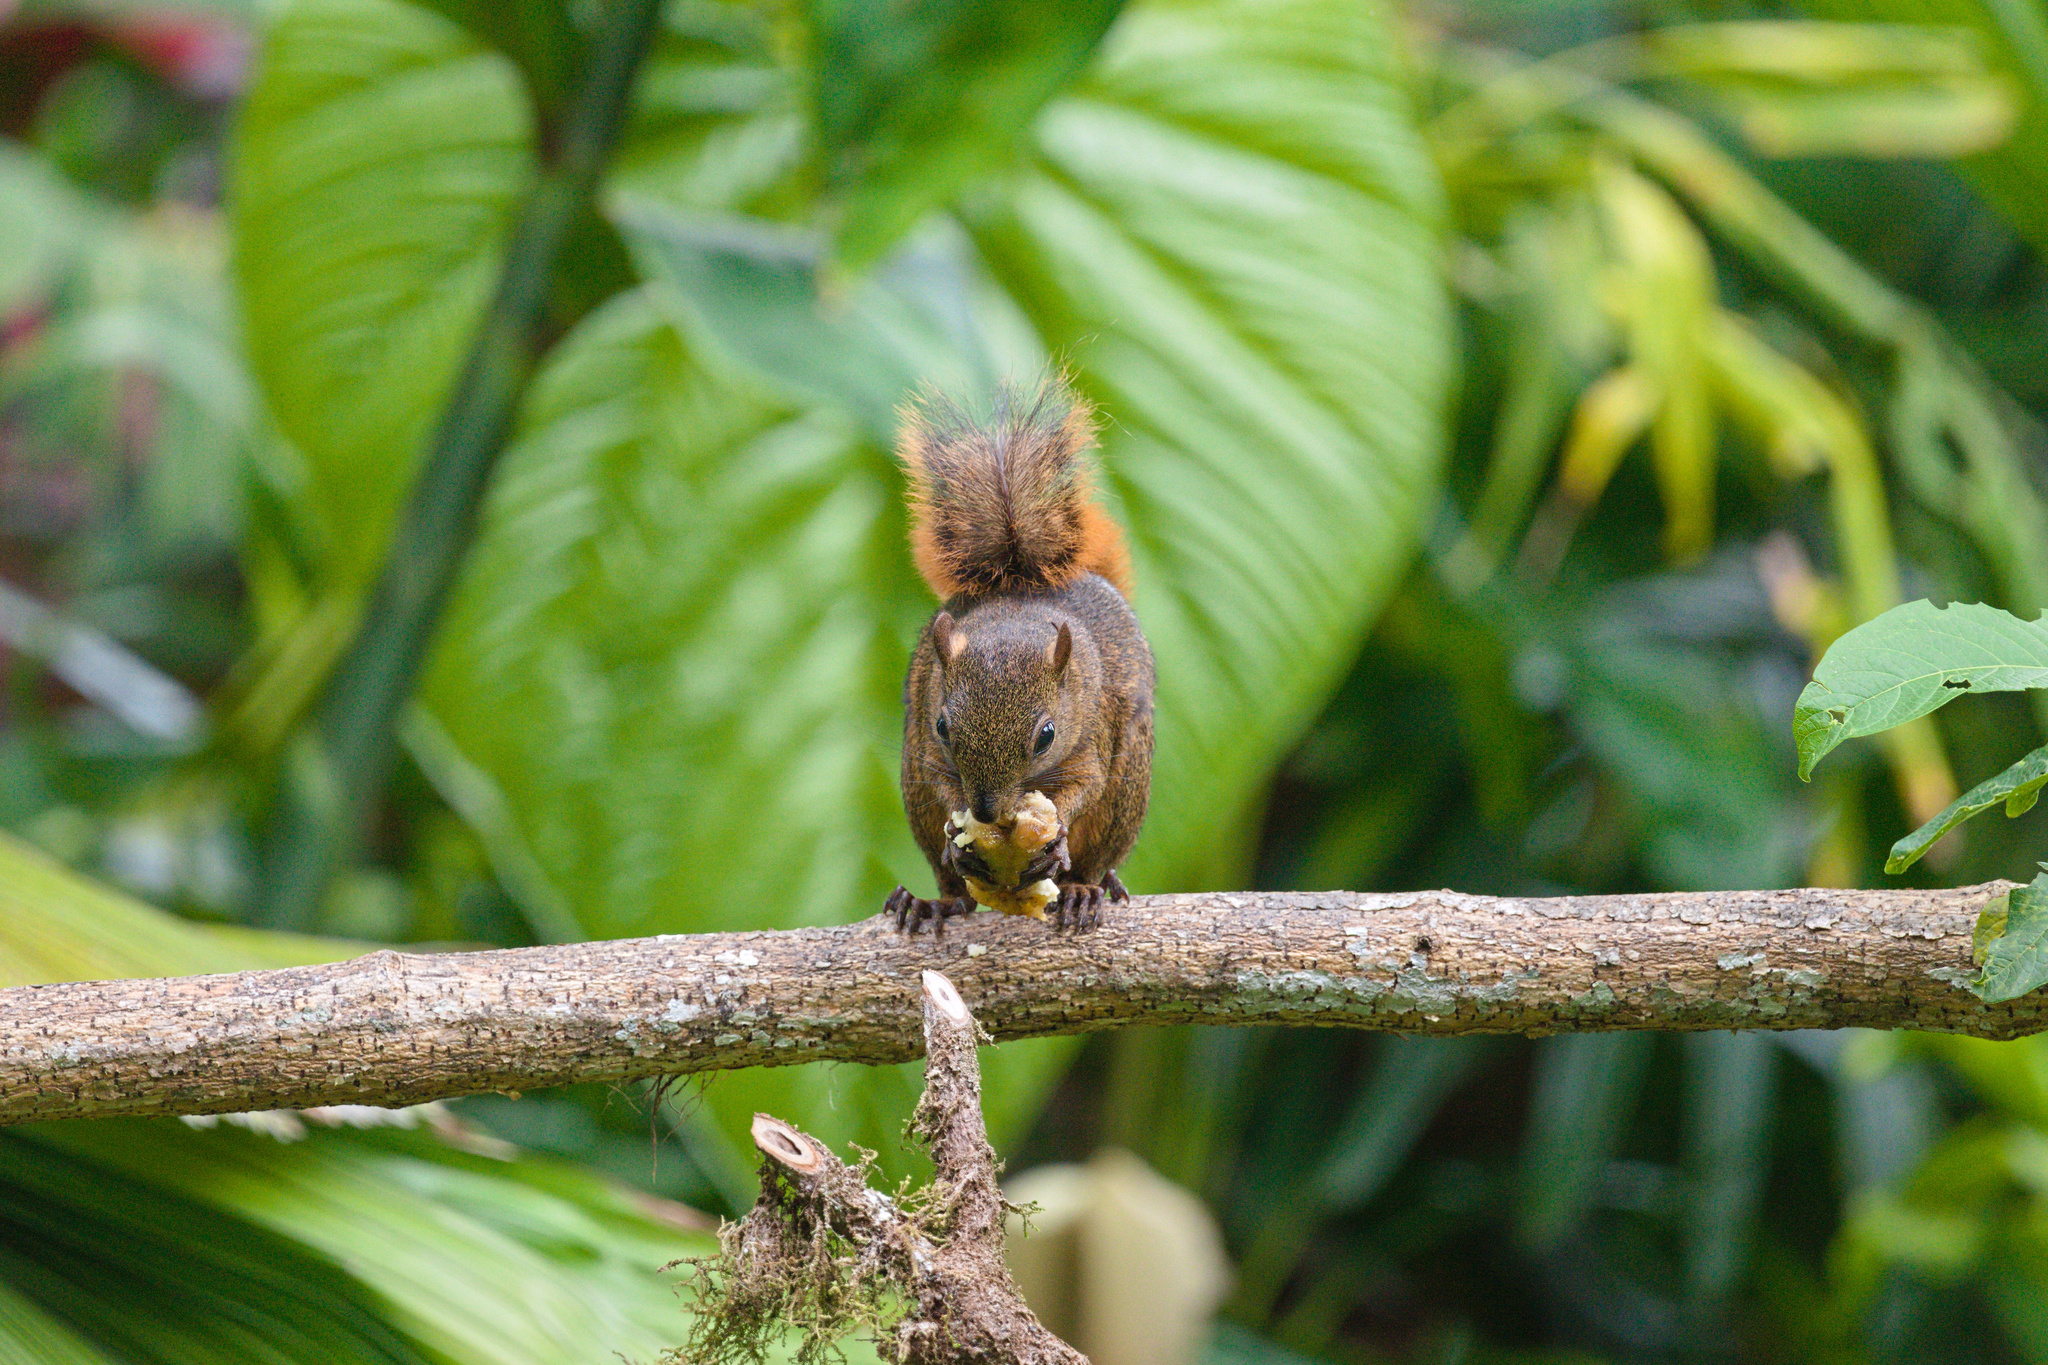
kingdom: Animalia
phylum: Chordata
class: Mammalia
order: Rodentia
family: Sciuridae
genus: Sciurus
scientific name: Sciurus granatensis
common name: Red-tailed squirrel
